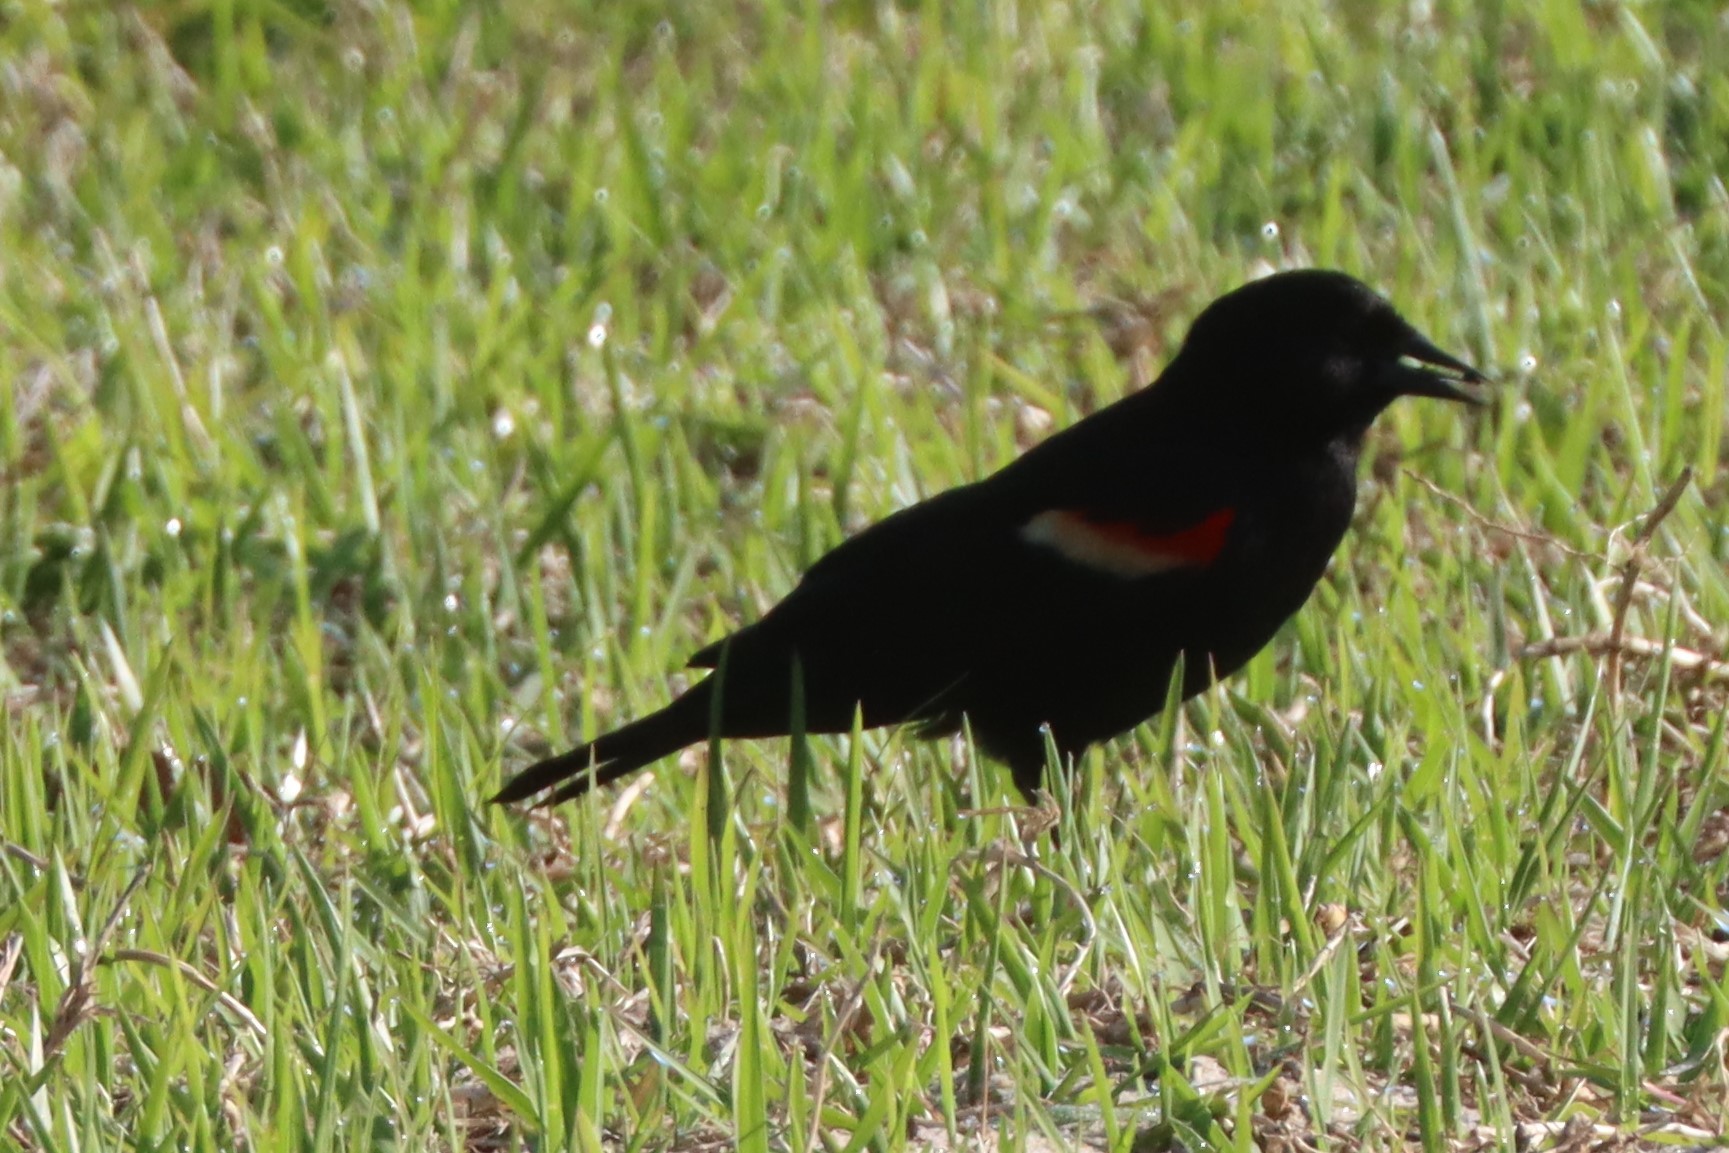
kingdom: Animalia
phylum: Chordata
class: Aves
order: Passeriformes
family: Icteridae
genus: Agelaius
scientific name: Agelaius phoeniceus
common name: Red-winged blackbird
